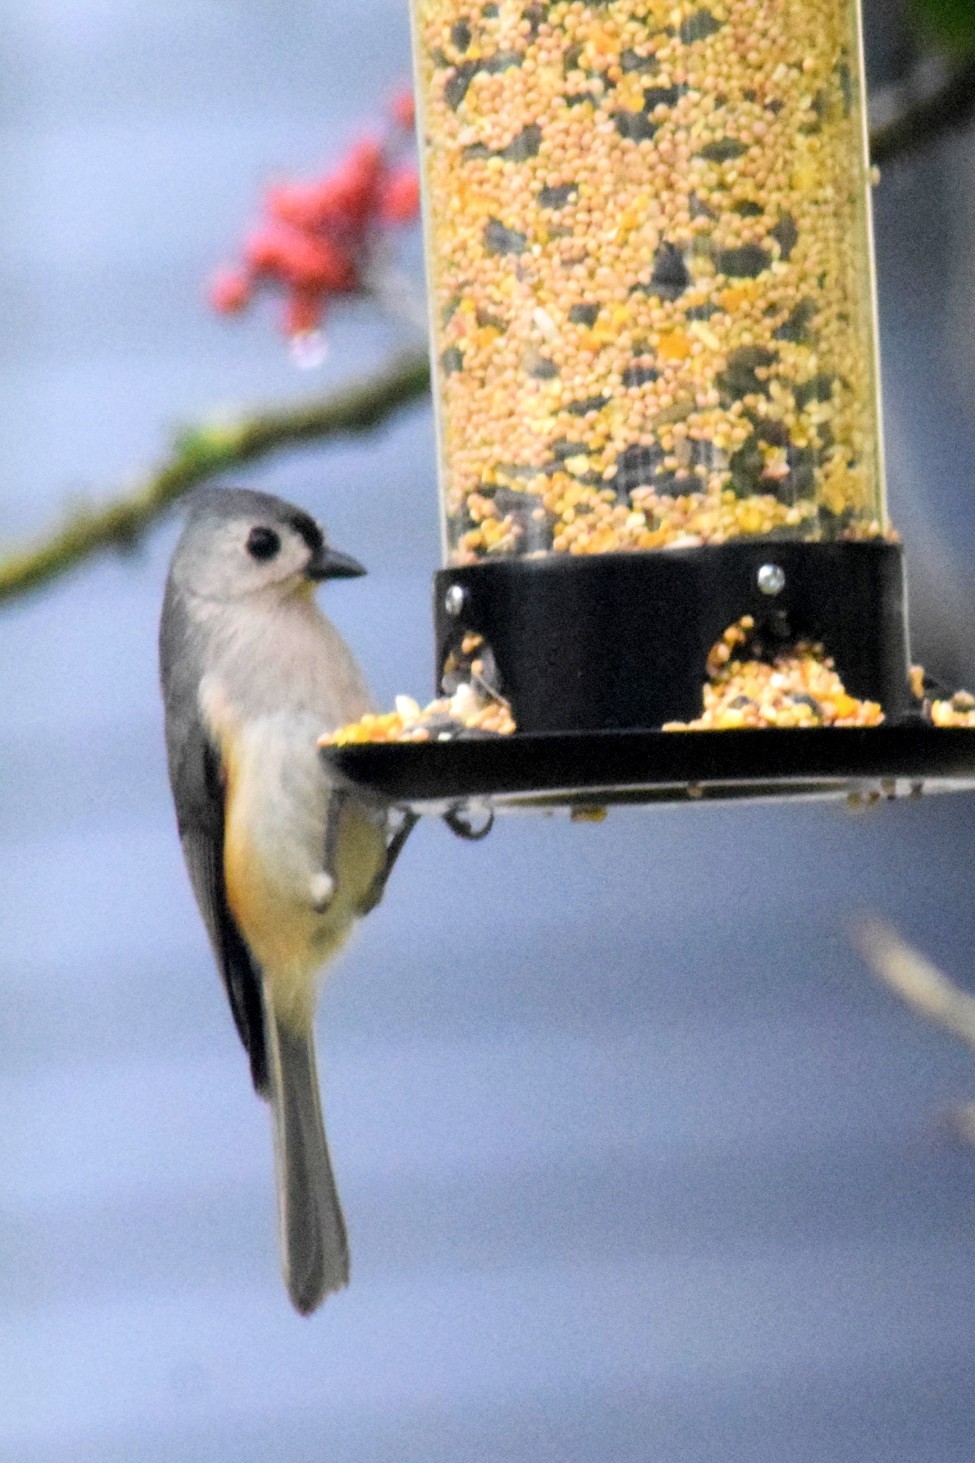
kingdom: Animalia
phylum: Chordata
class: Aves
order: Passeriformes
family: Paridae
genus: Baeolophus
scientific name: Baeolophus bicolor
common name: Tufted titmouse
